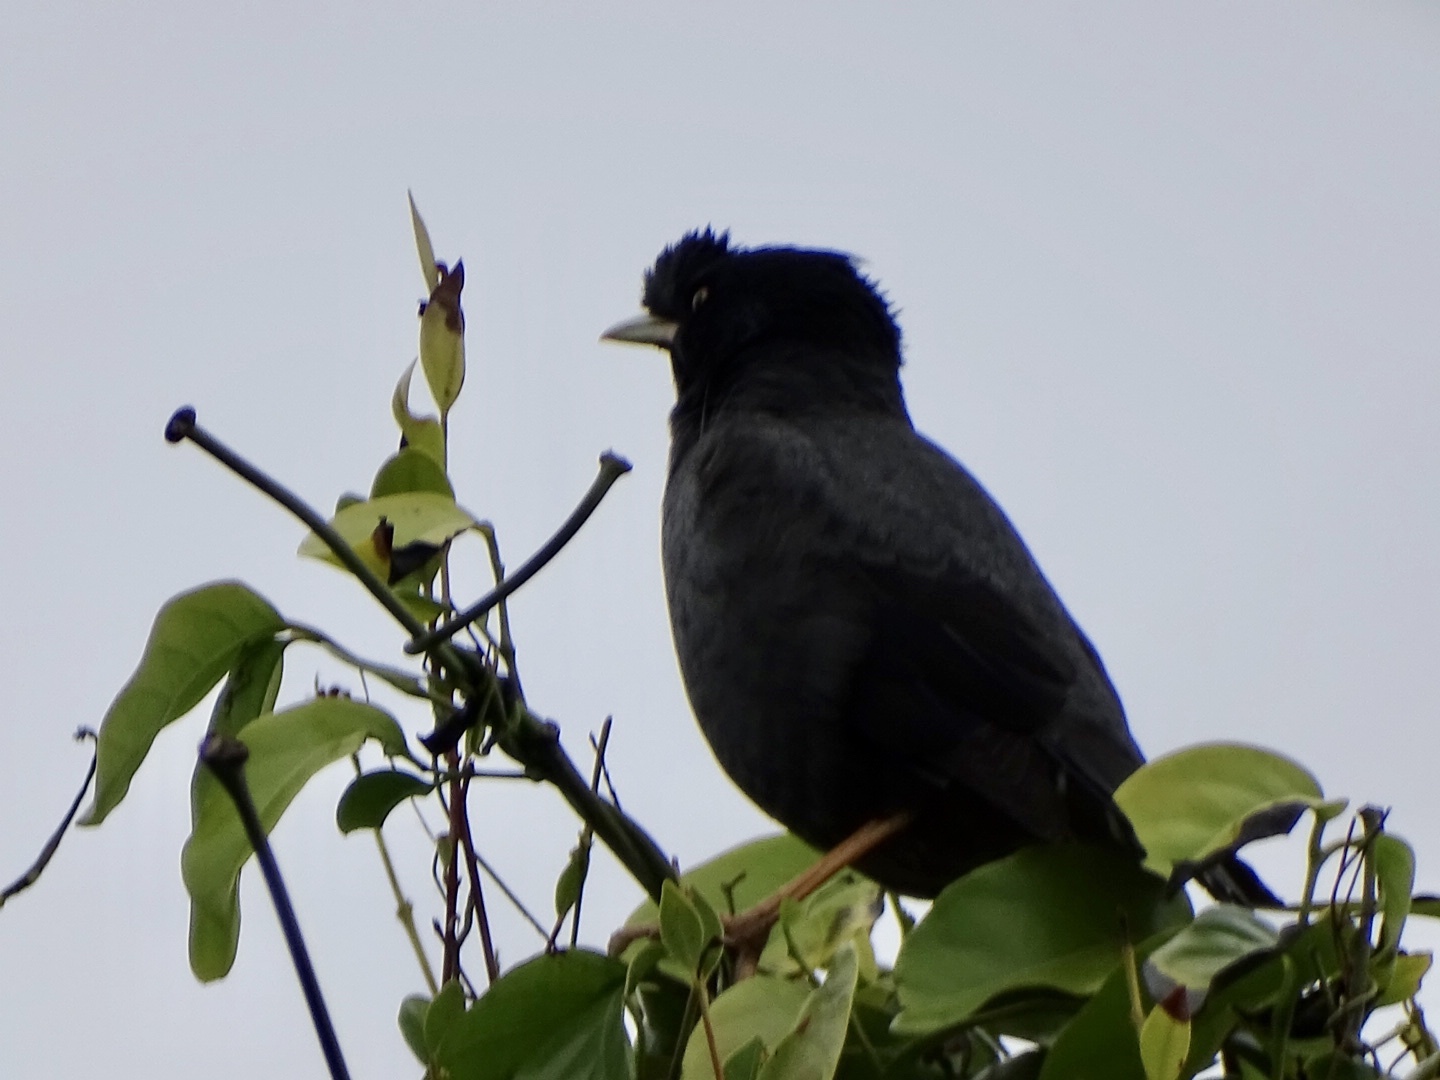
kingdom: Animalia
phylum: Chordata
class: Aves
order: Passeriformes
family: Sturnidae
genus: Acridotheres
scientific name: Acridotheres cristatellus
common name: Crested myna
